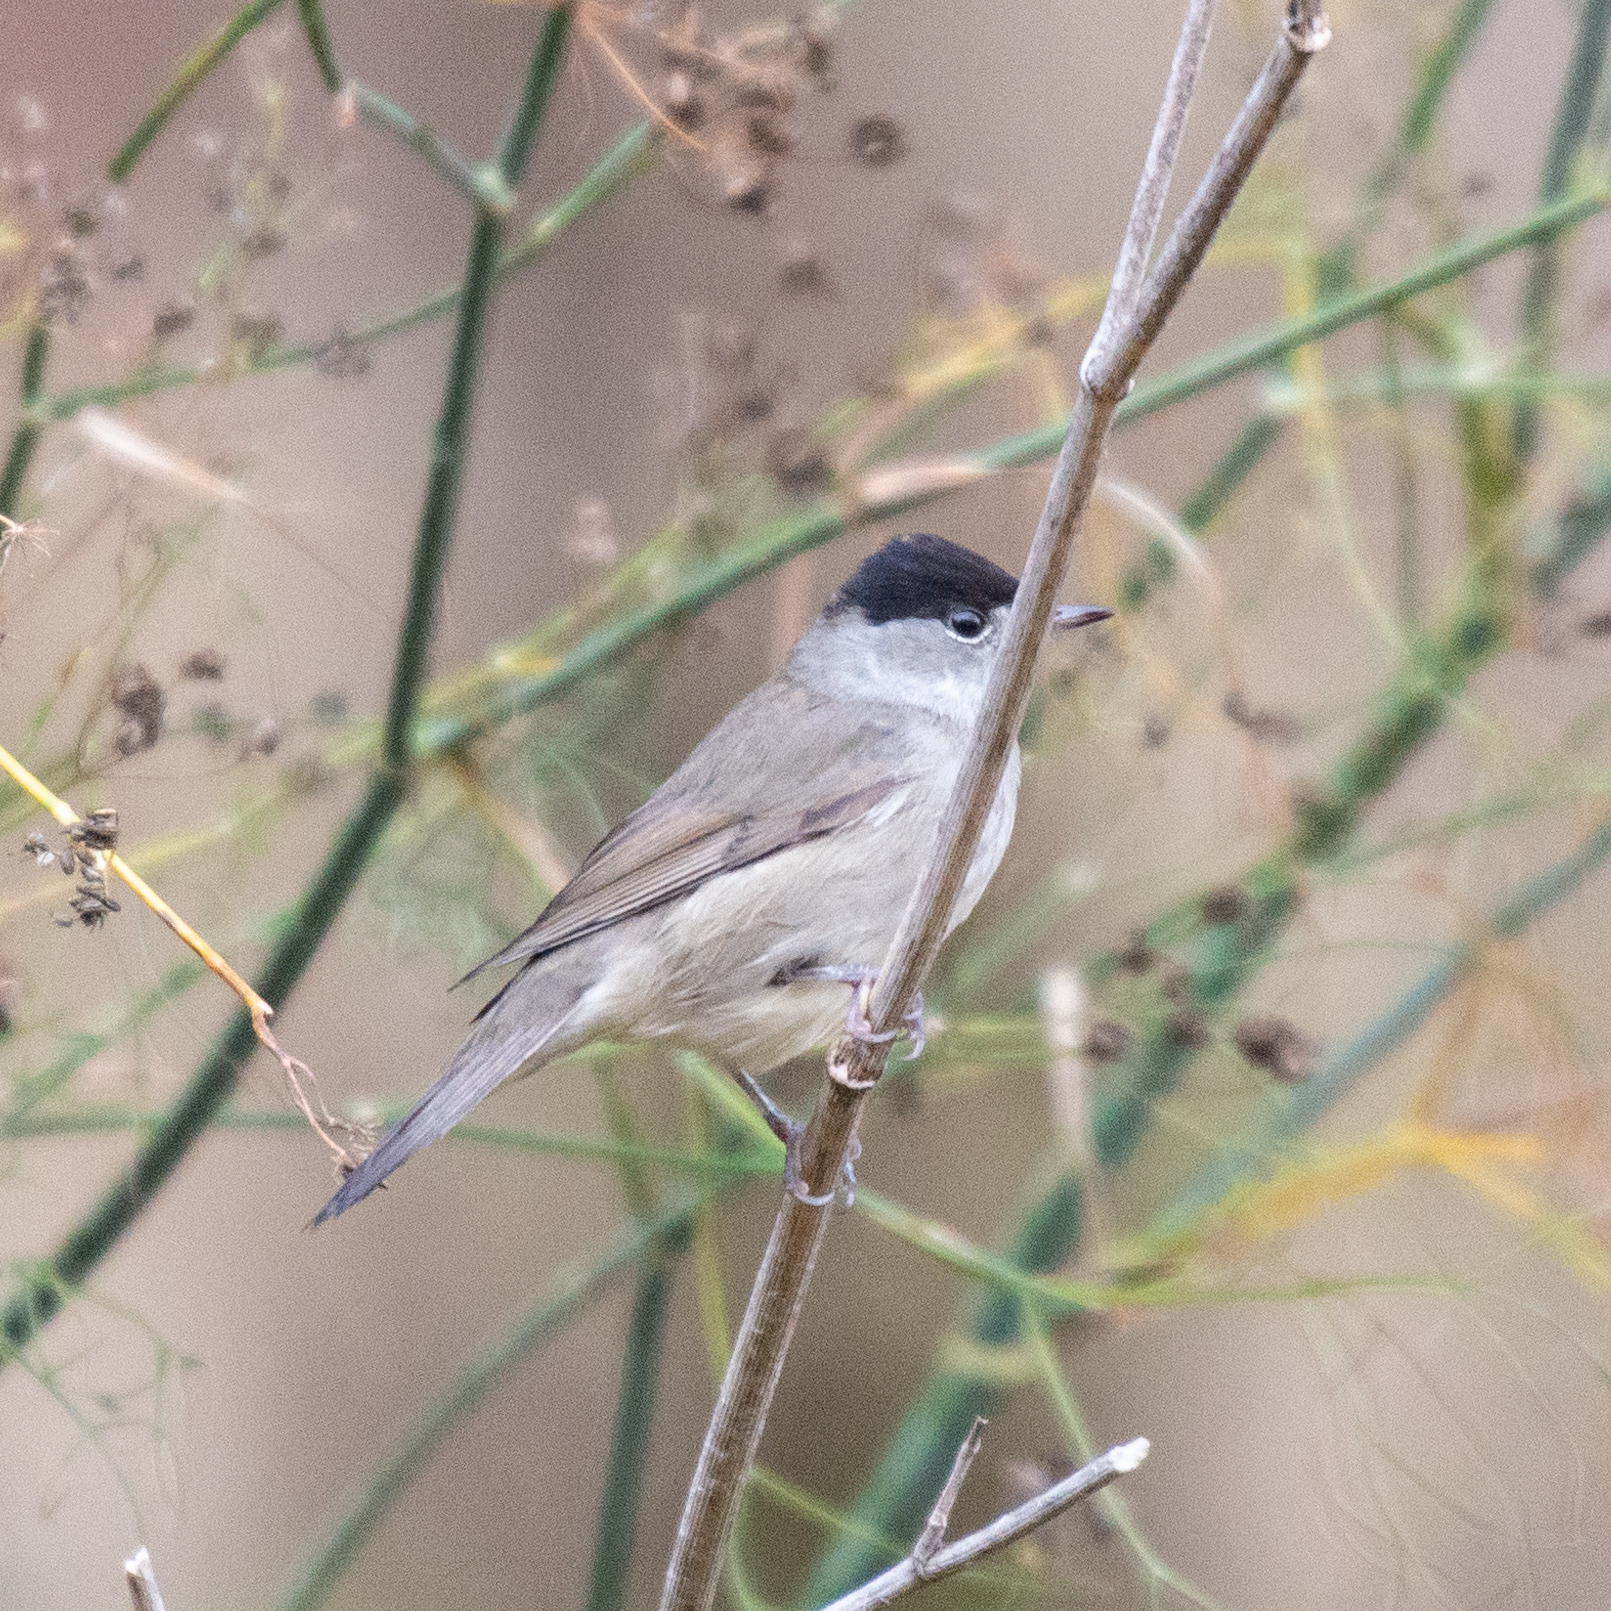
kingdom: Animalia
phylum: Chordata
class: Aves
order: Passeriformes
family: Sylviidae
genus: Sylvia
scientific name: Sylvia atricapilla
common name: Eurasian blackcap
